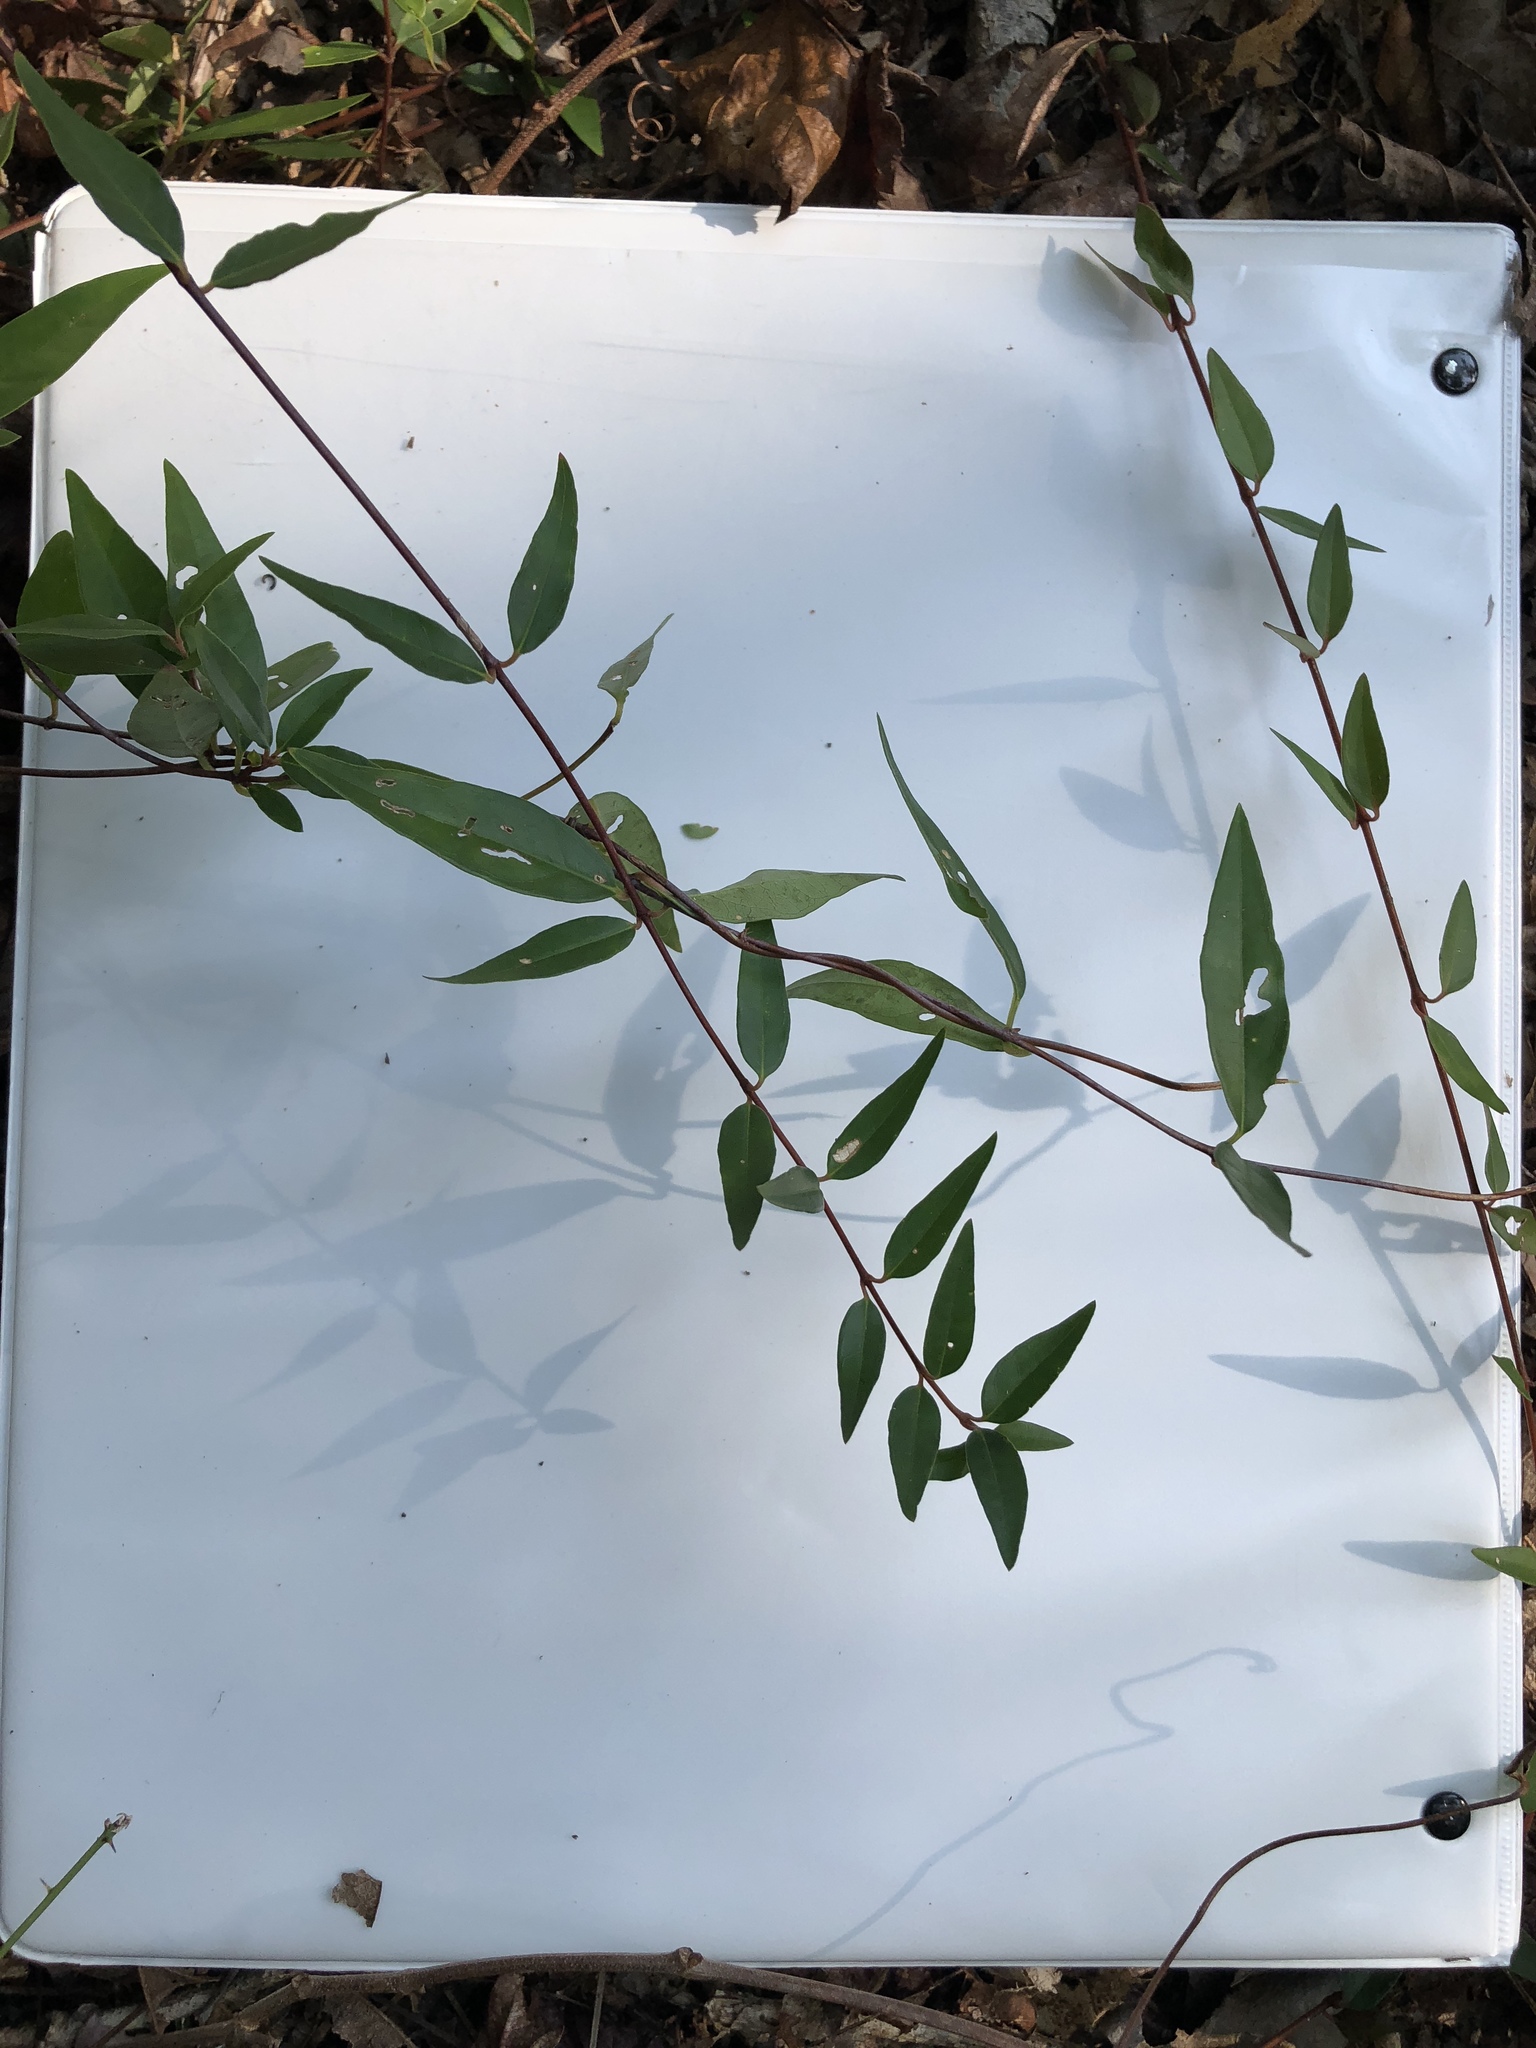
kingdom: Plantae
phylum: Tracheophyta
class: Magnoliopsida
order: Gentianales
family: Gelsemiaceae
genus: Gelsemium
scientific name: Gelsemium sempervirens
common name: Carolina-jasmine
